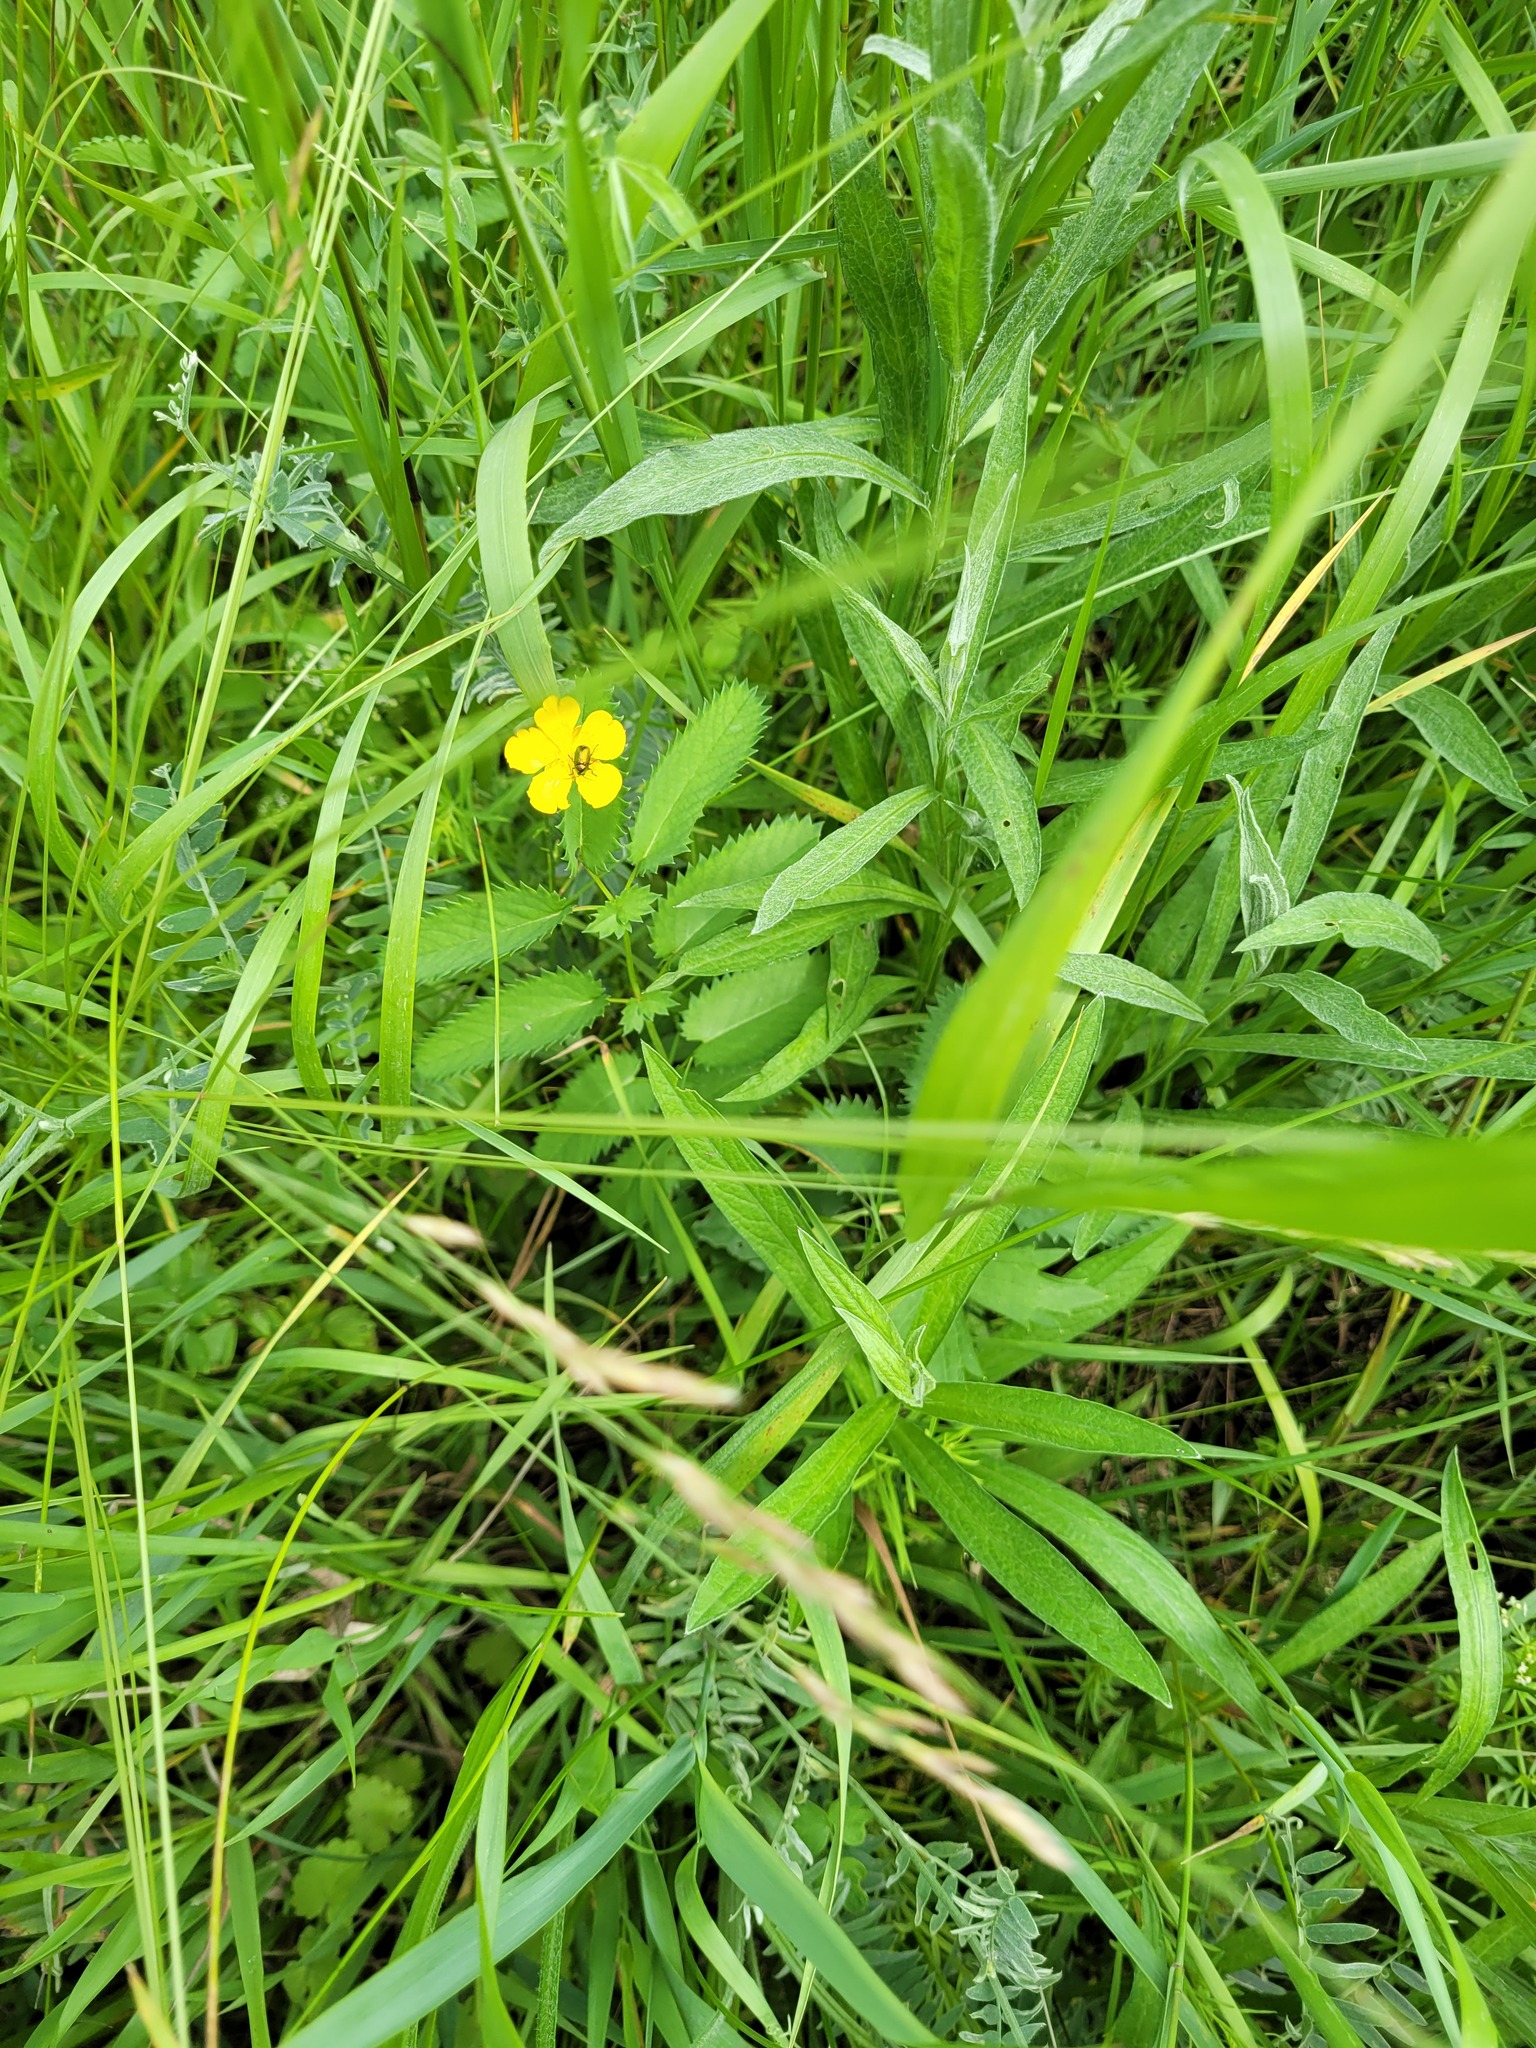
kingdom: Plantae
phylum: Tracheophyta
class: Magnoliopsida
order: Rosales
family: Rosaceae
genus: Sanguisorba
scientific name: Sanguisorba officinalis
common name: Great burnet
